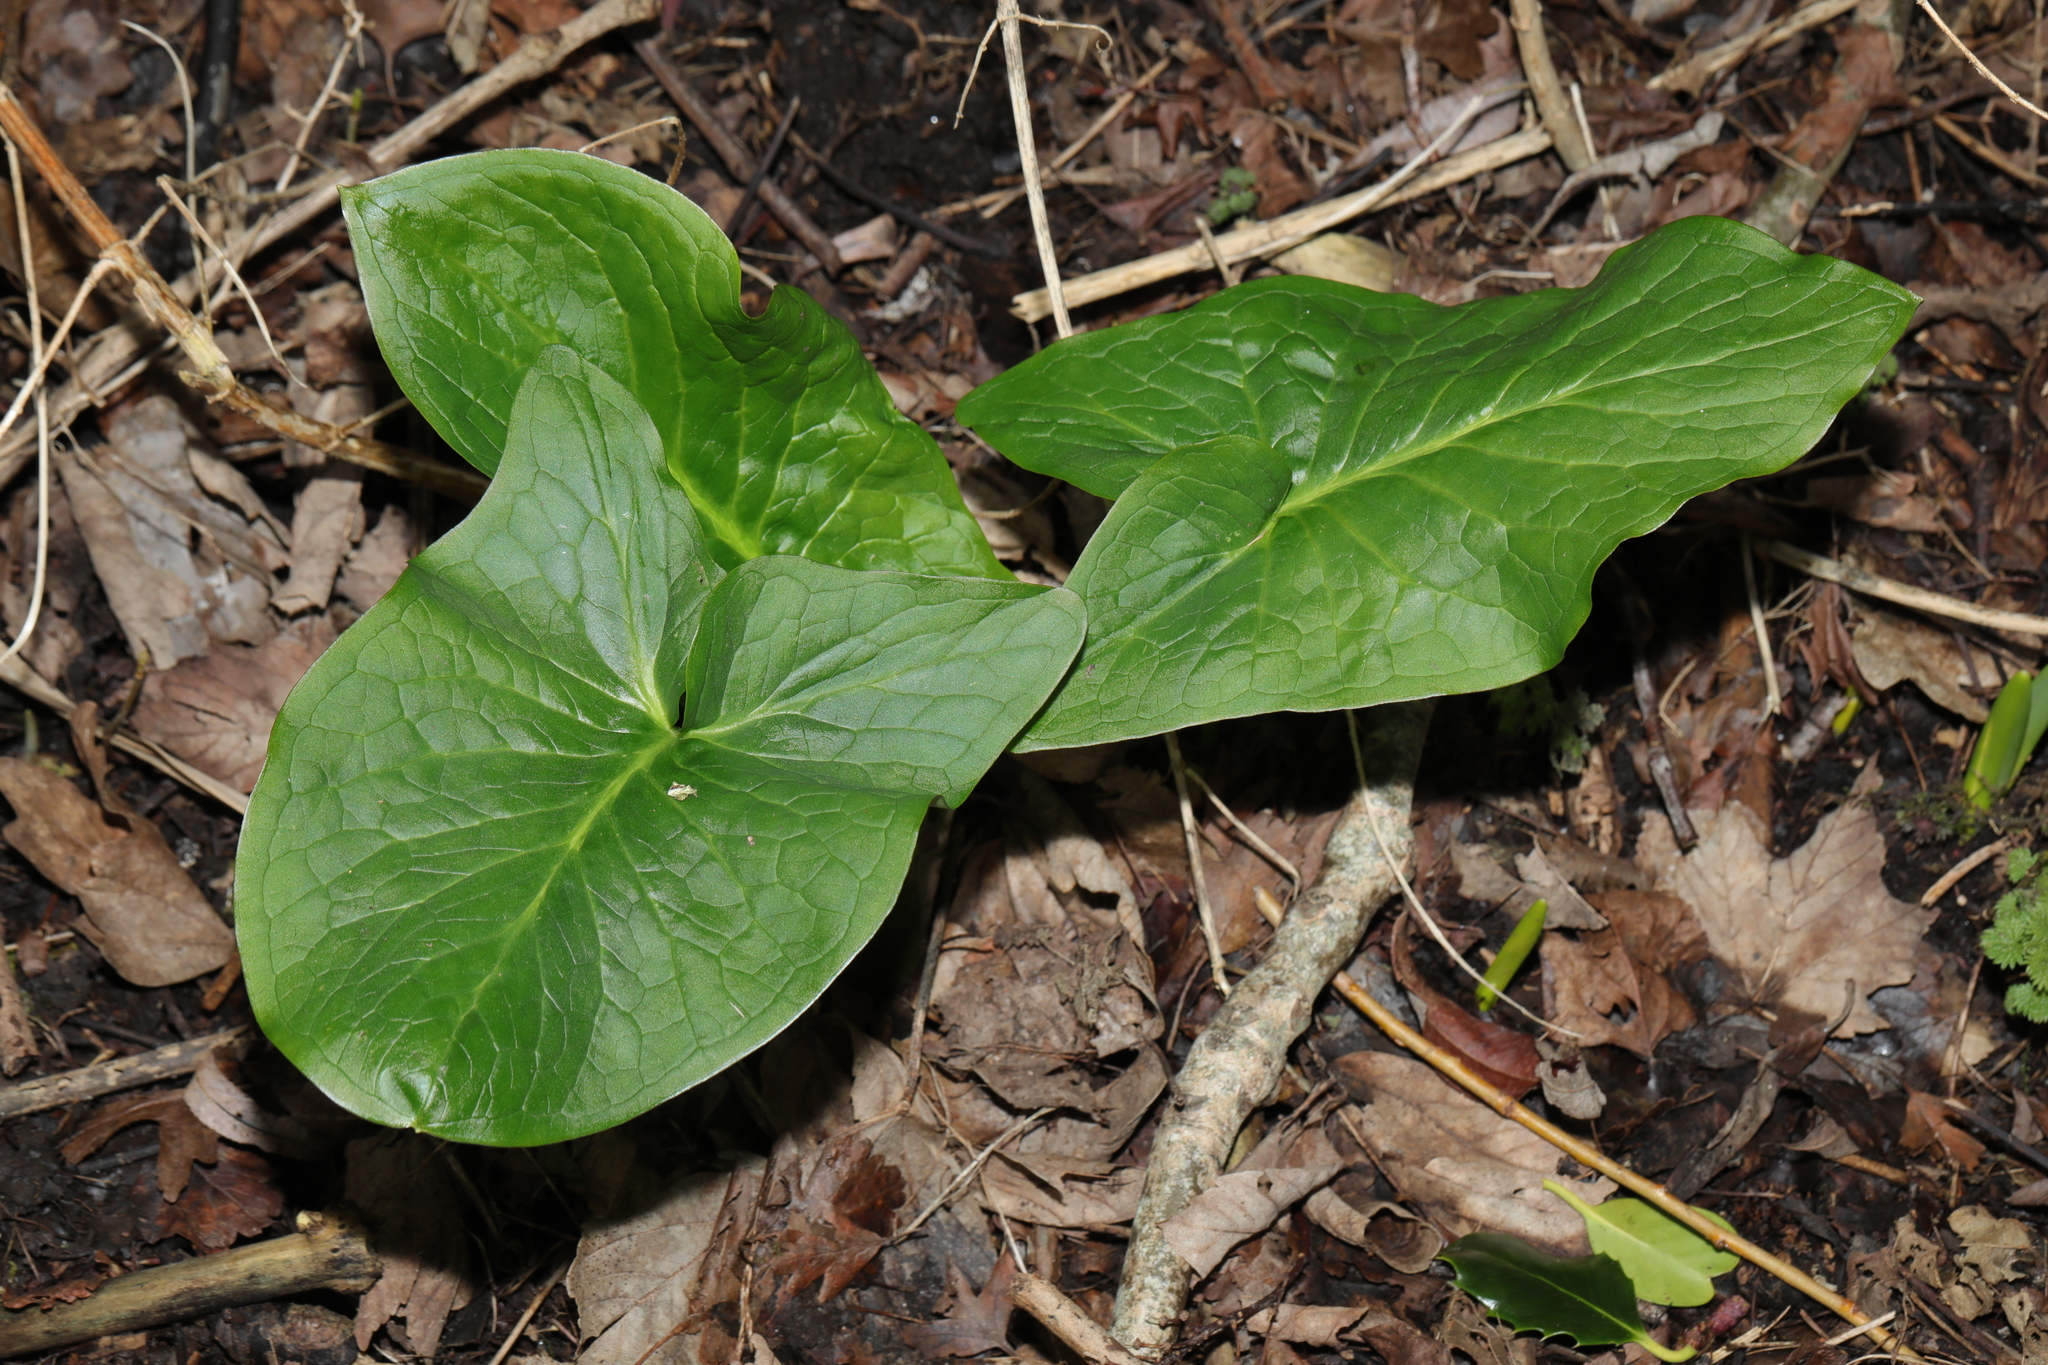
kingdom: Plantae
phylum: Tracheophyta
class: Liliopsida
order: Alismatales
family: Araceae
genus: Arum
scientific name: Arum maculatum
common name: Lords-and-ladies
